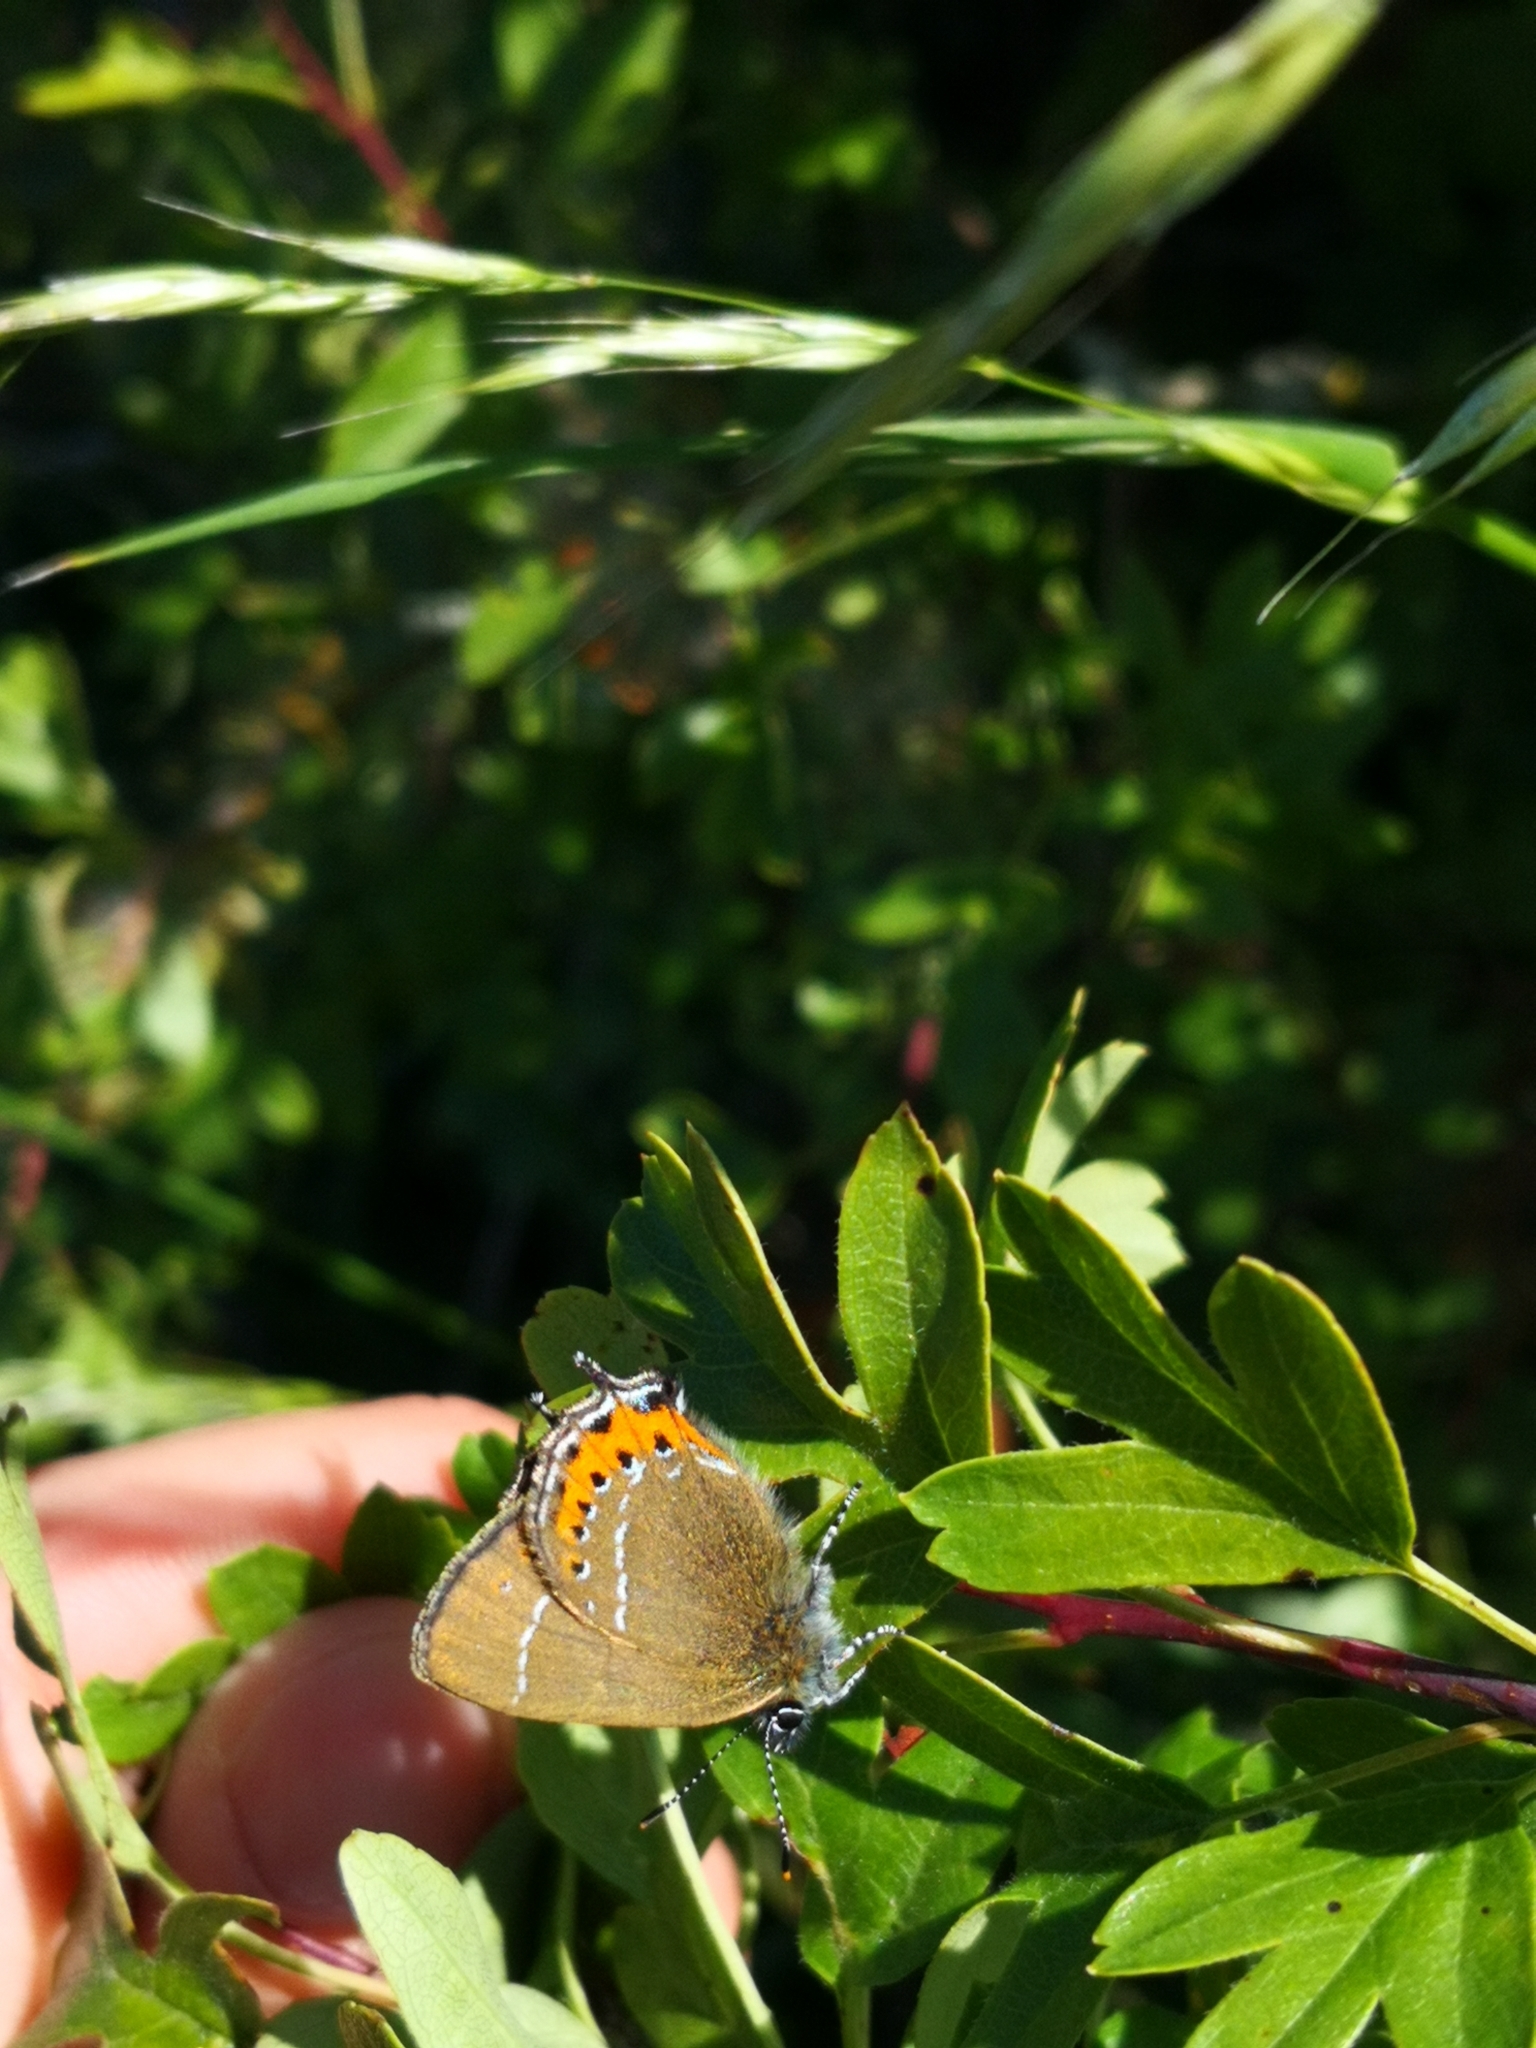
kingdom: Animalia
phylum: Arthropoda
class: Insecta
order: Lepidoptera
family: Lycaenidae
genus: Fixsenia
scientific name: Fixsenia pruni
